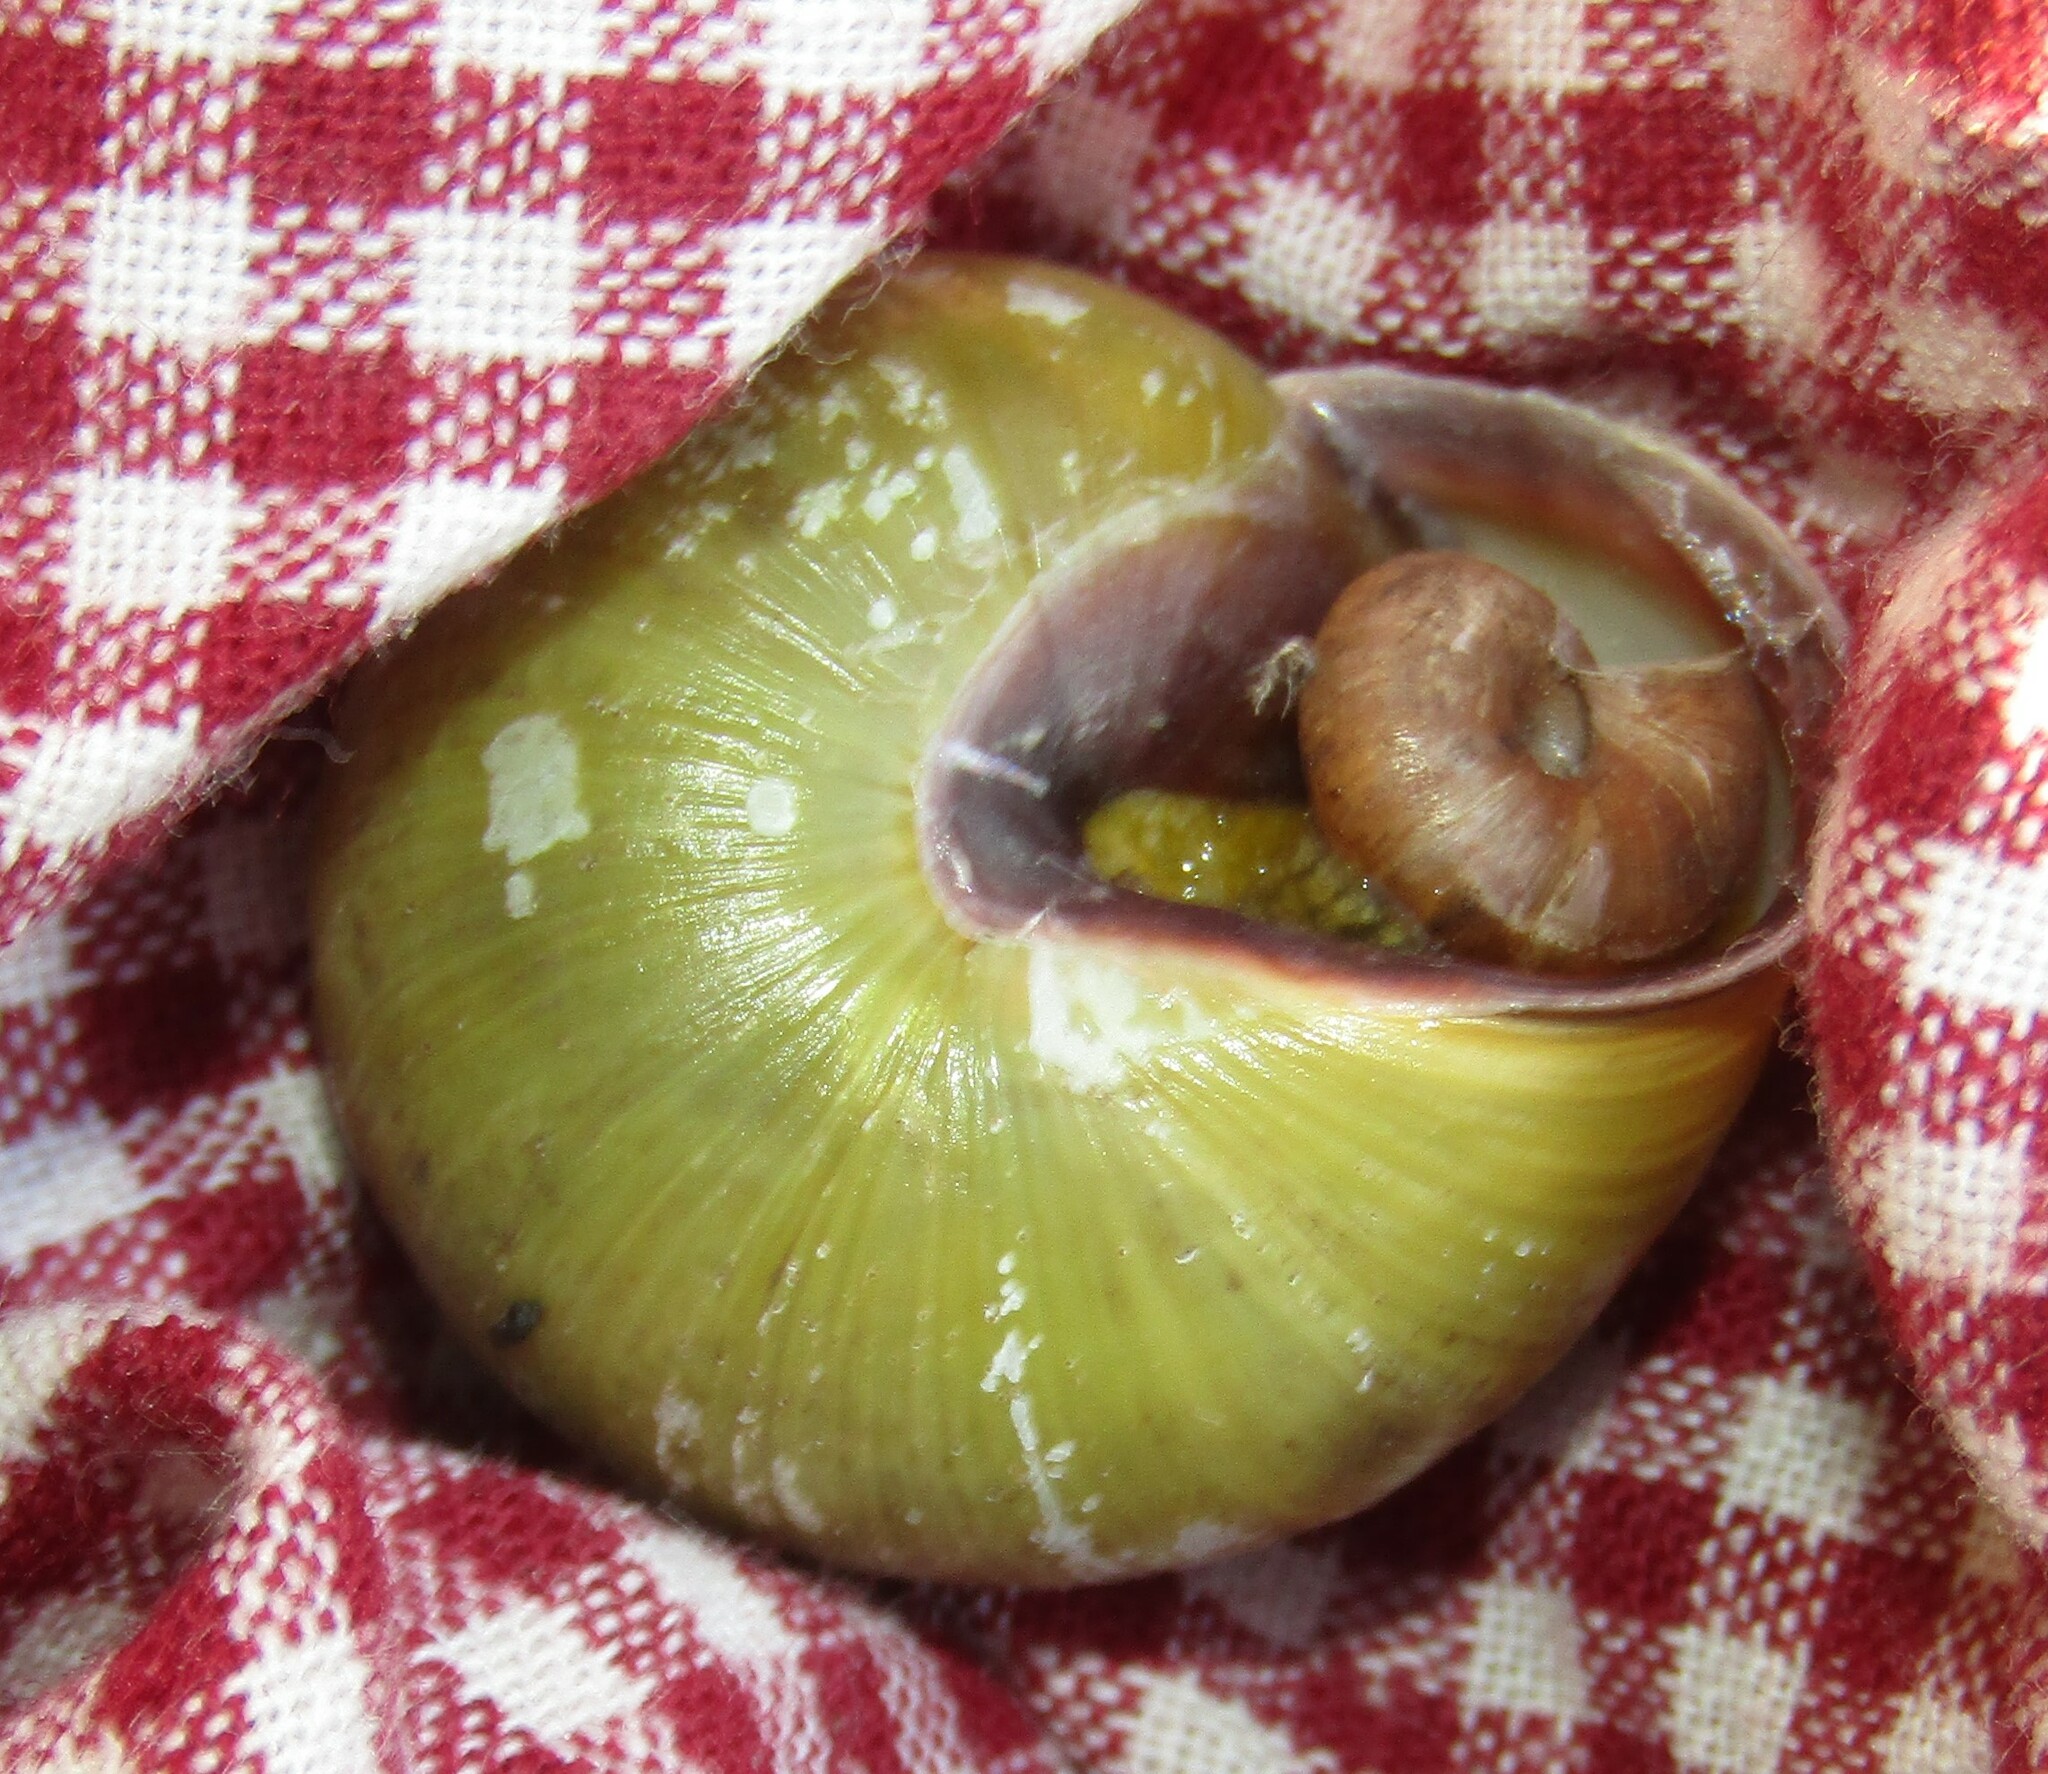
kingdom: Animalia
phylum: Mollusca
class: Gastropoda
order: Stylommatophora
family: Helicidae
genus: Cepaea
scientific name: Cepaea nemoralis
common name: Grovesnail
